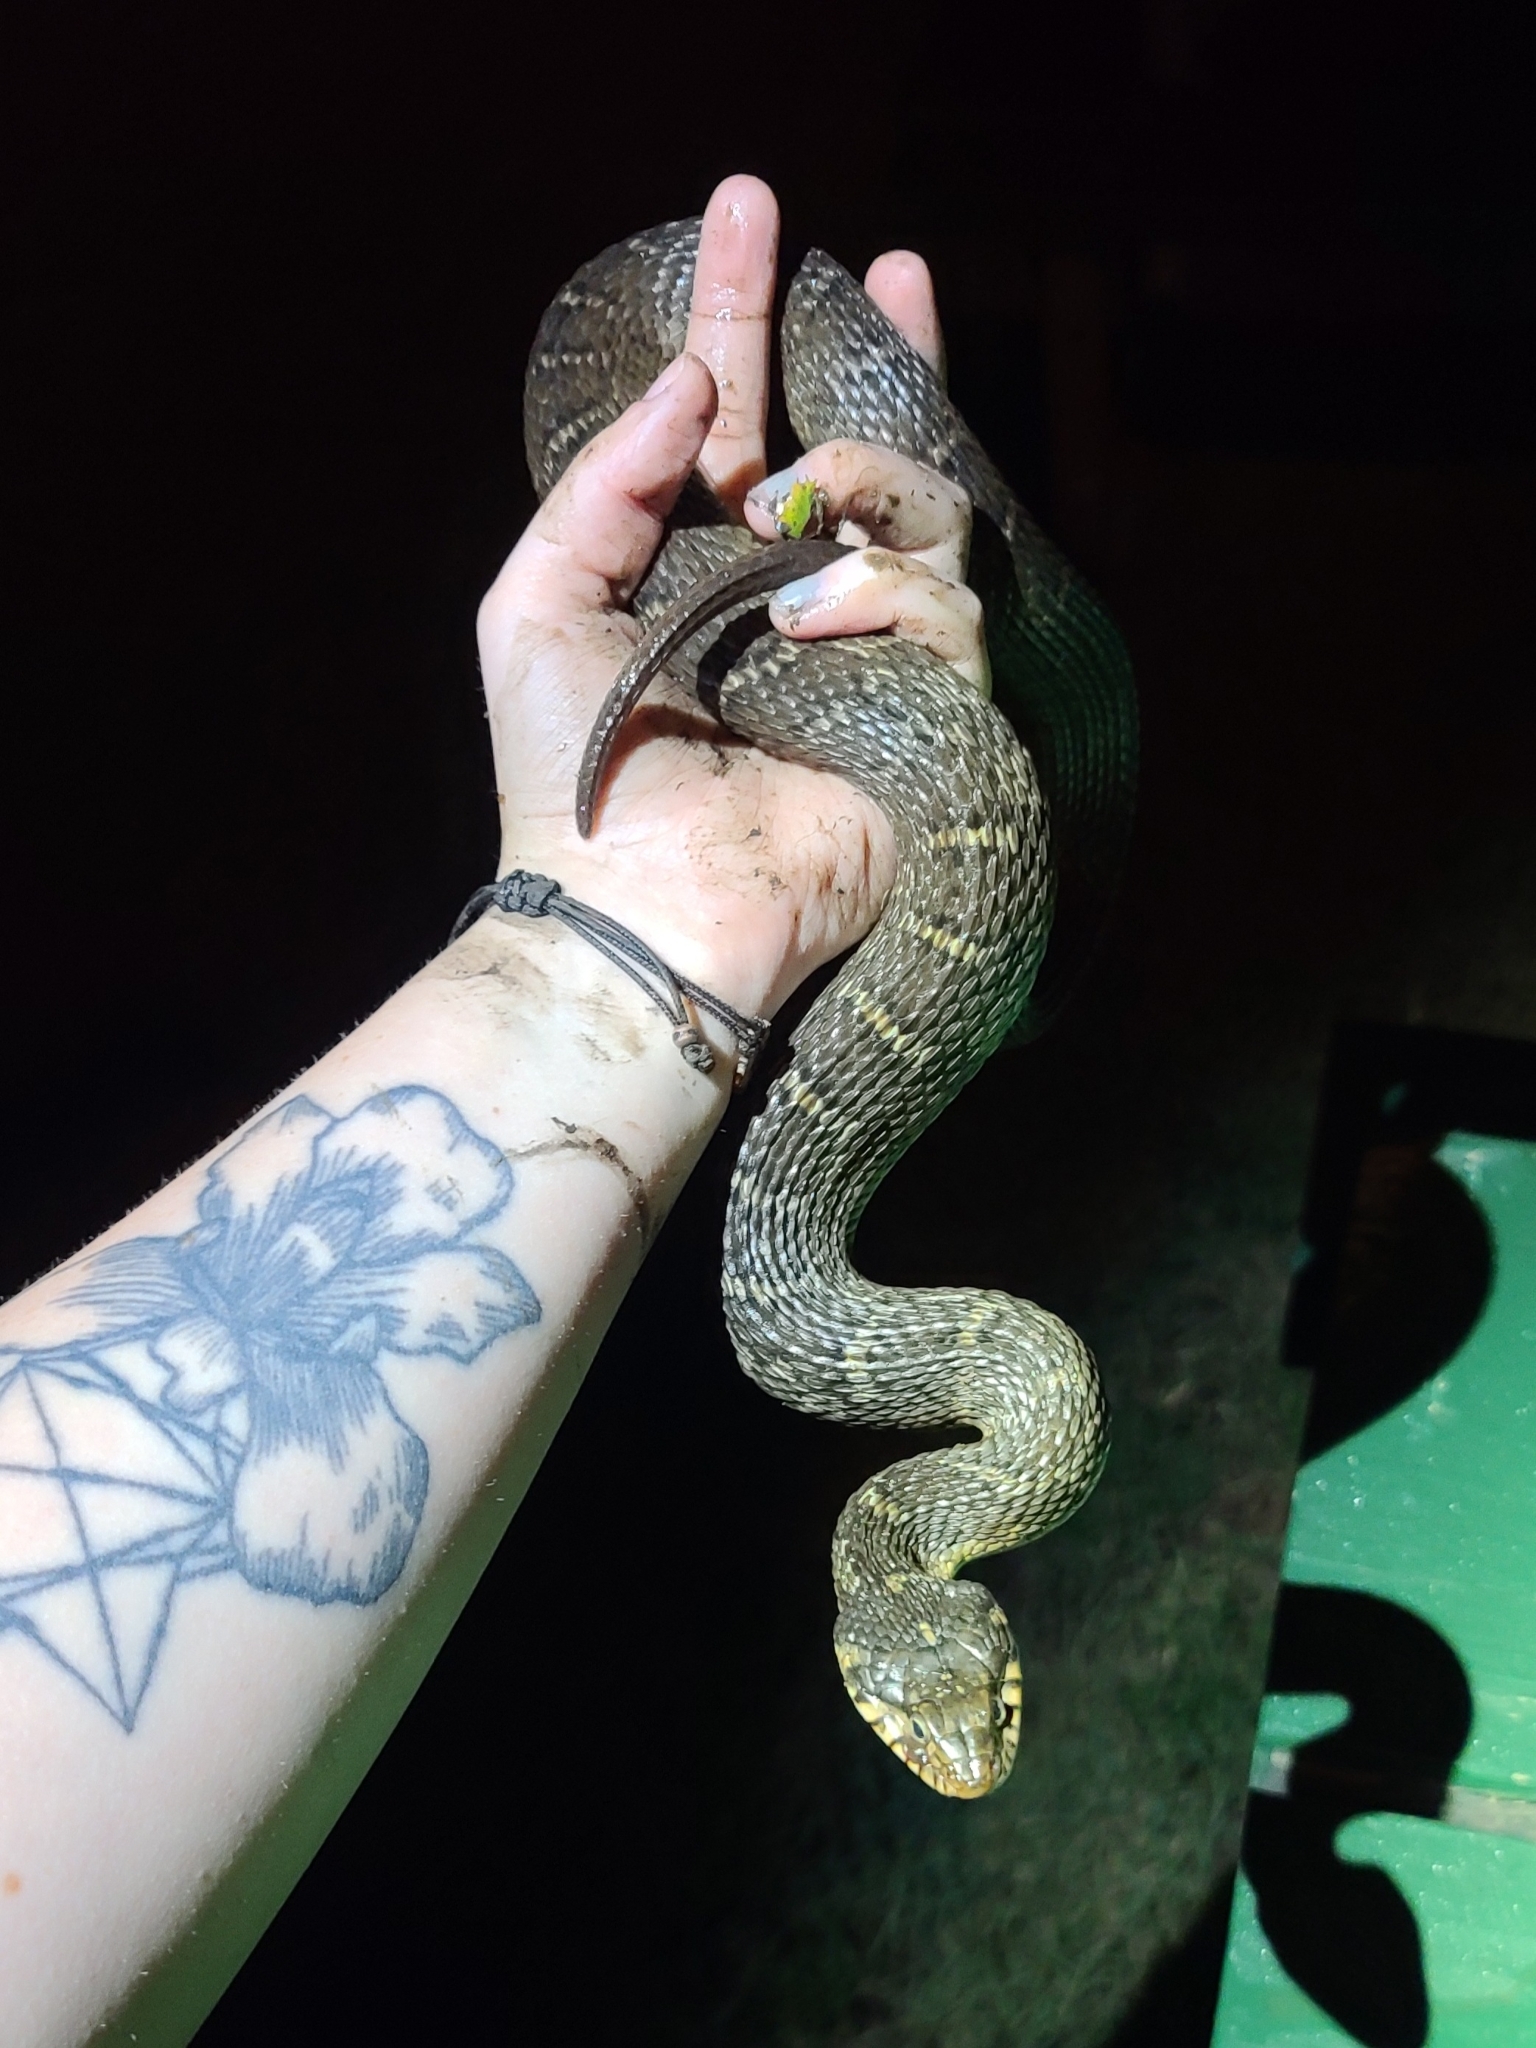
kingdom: Animalia
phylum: Chordata
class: Squamata
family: Colubridae
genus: Nerodia
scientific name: Nerodia erythrogaster
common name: Plainbelly water snake
